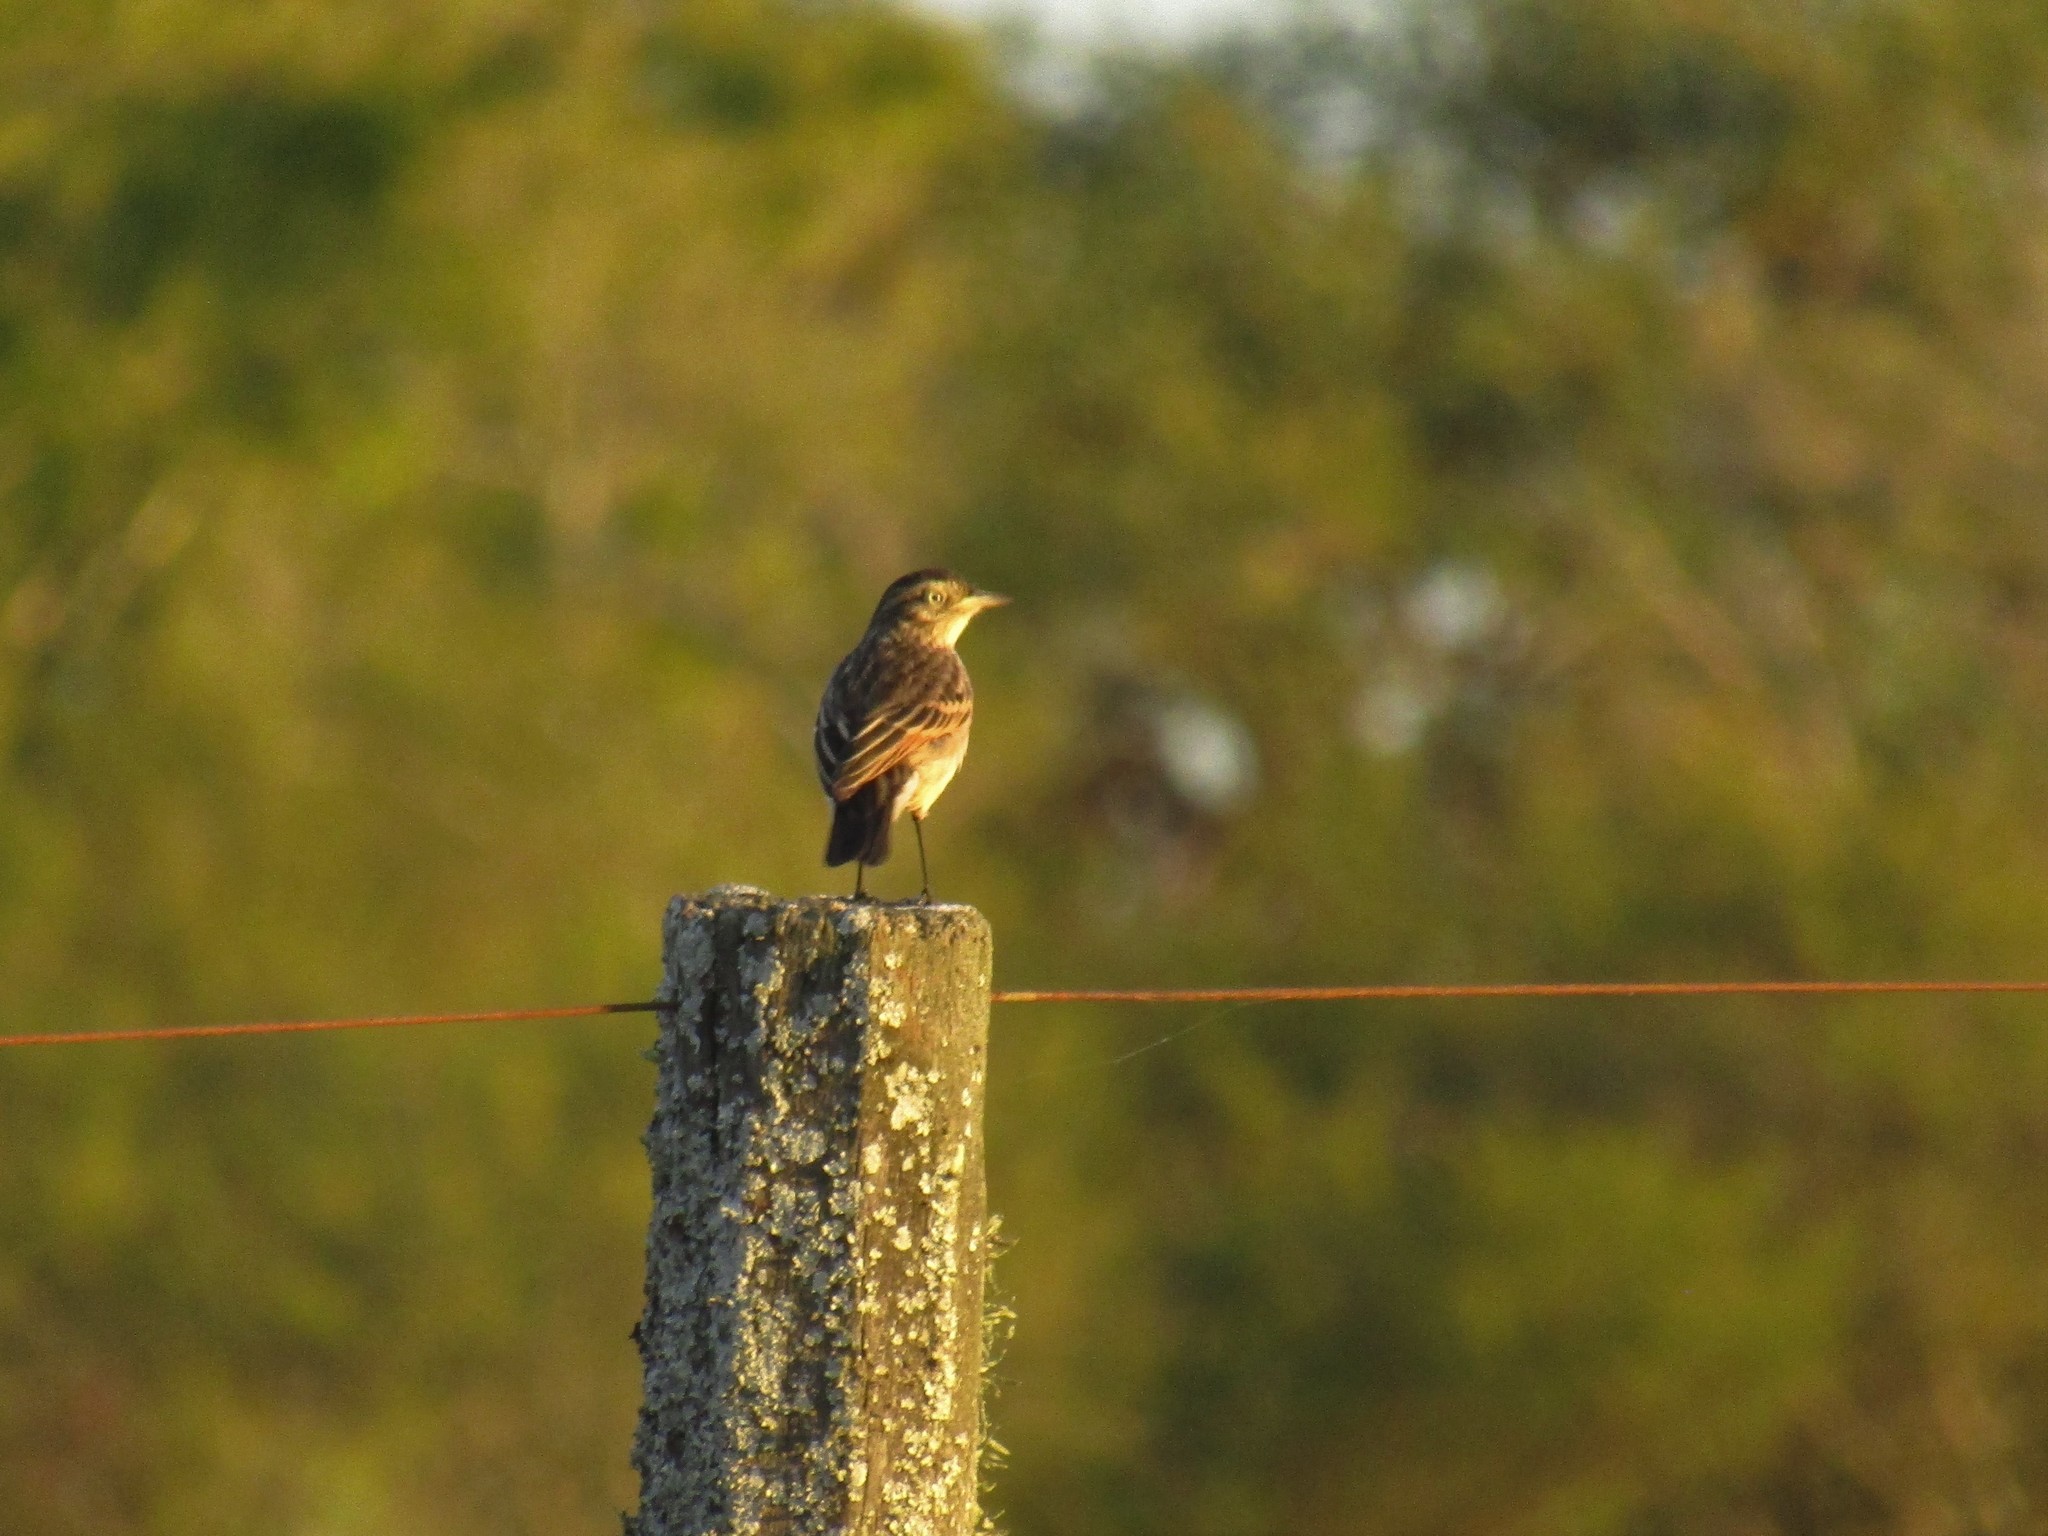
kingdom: Animalia
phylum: Chordata
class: Aves
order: Passeriformes
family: Tyrannidae
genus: Hymenops
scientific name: Hymenops perspicillatus
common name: Spectacled tyrant
